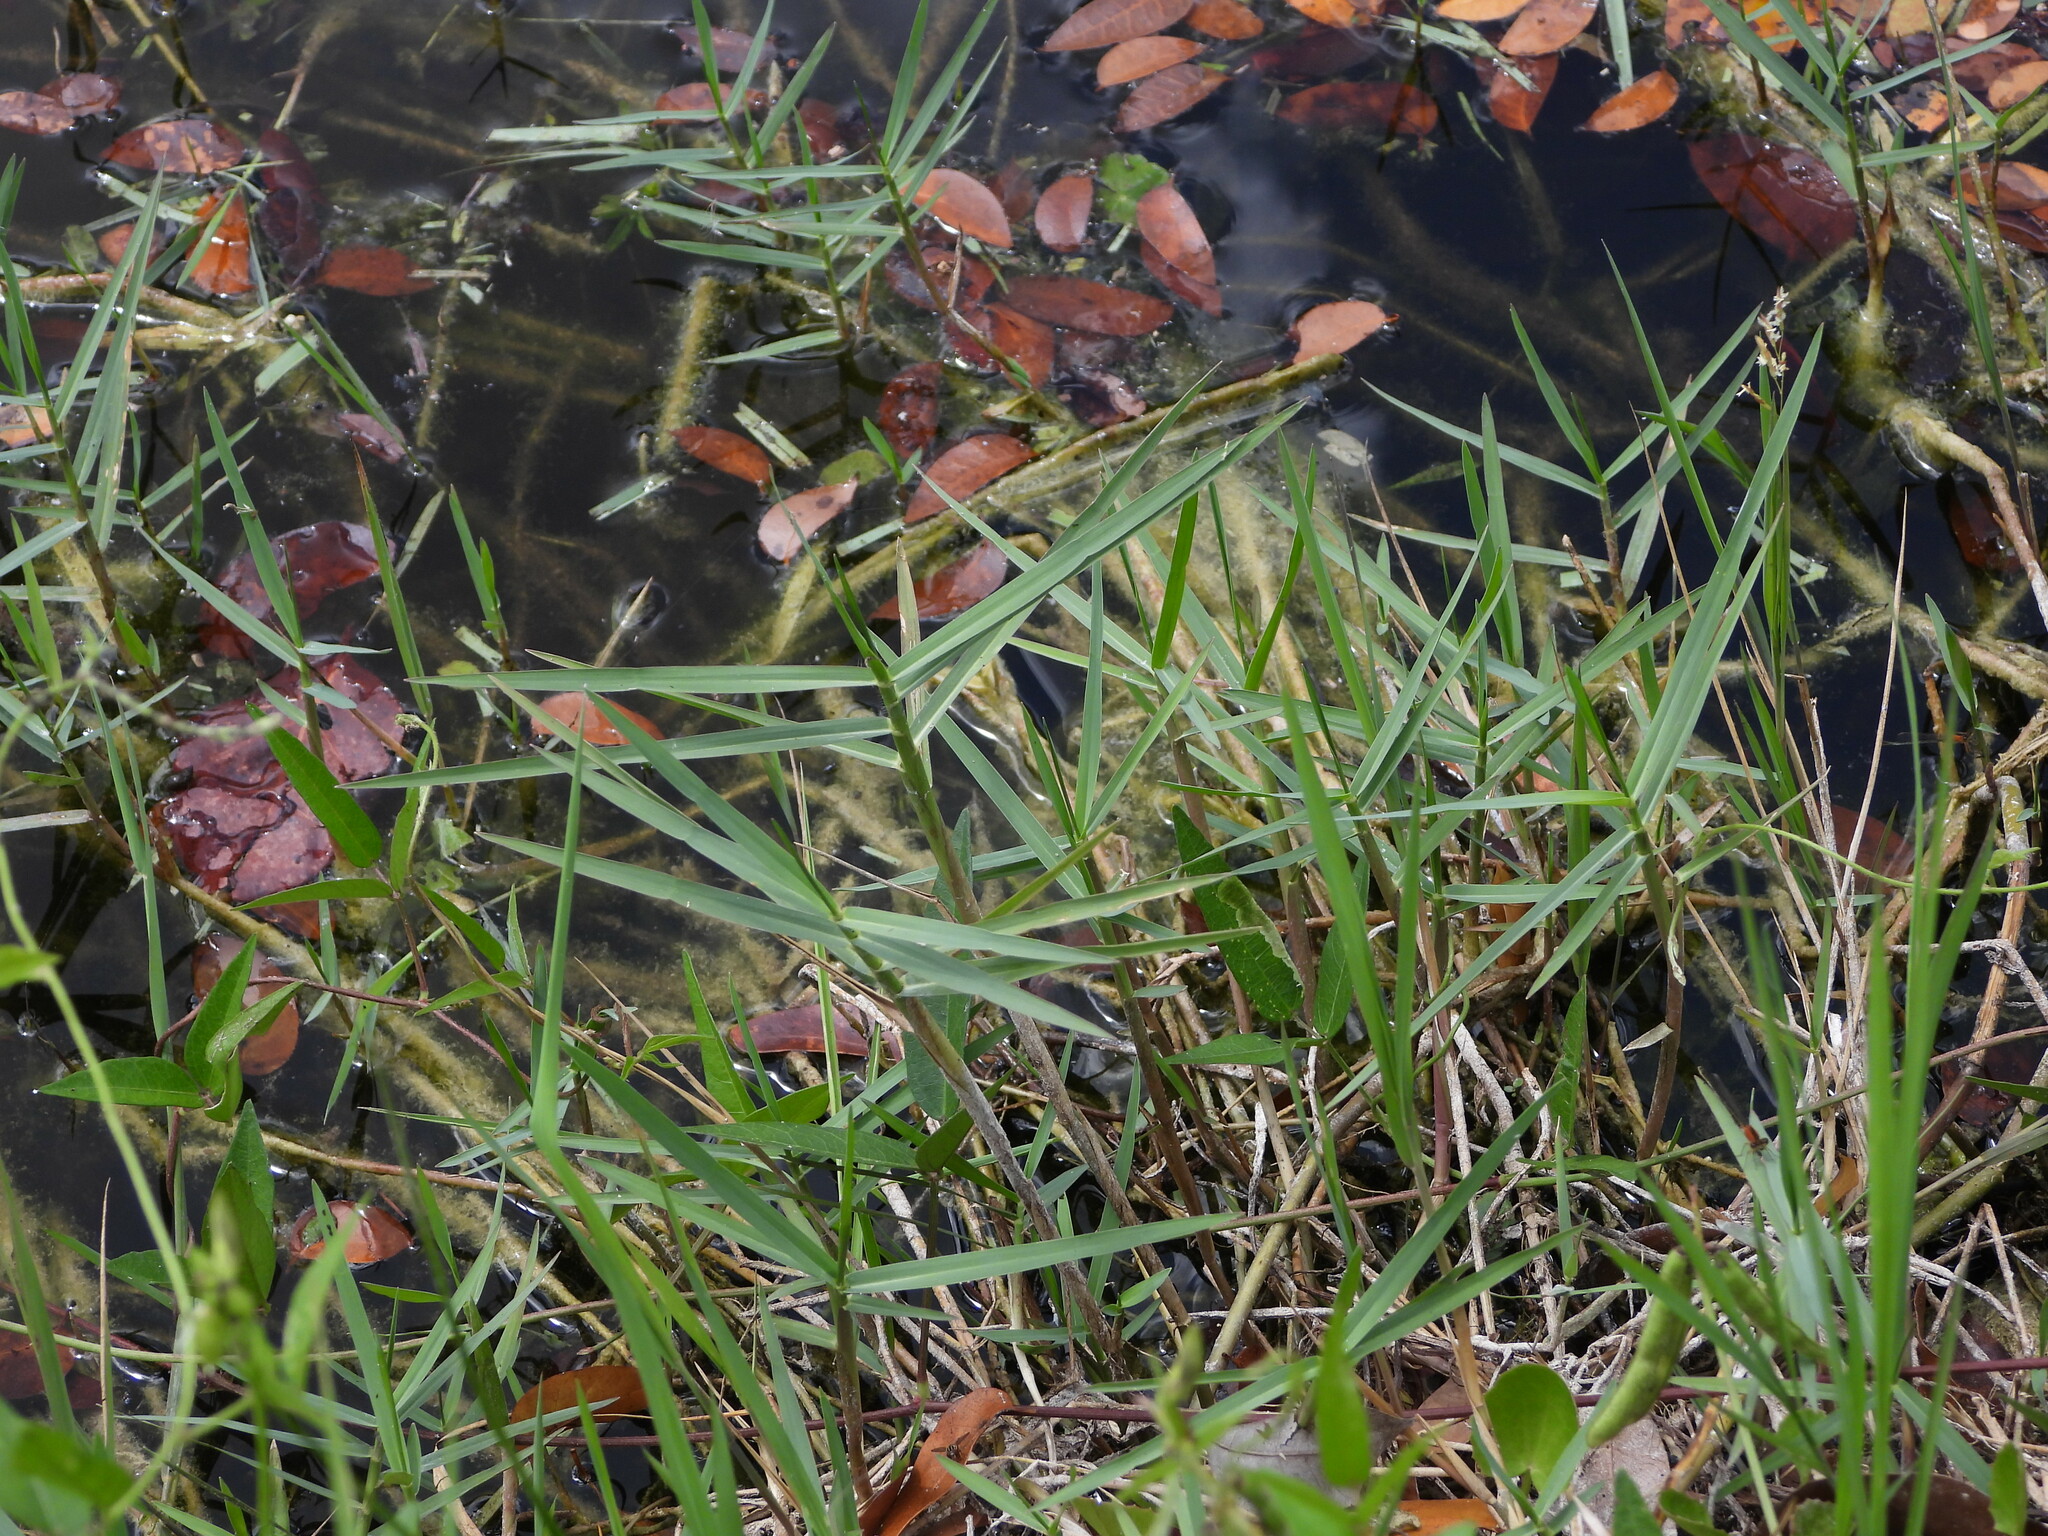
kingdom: Plantae
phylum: Tracheophyta
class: Liliopsida
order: Poales
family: Poaceae
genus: Panicum
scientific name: Panicum repens
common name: Torpedo grass
